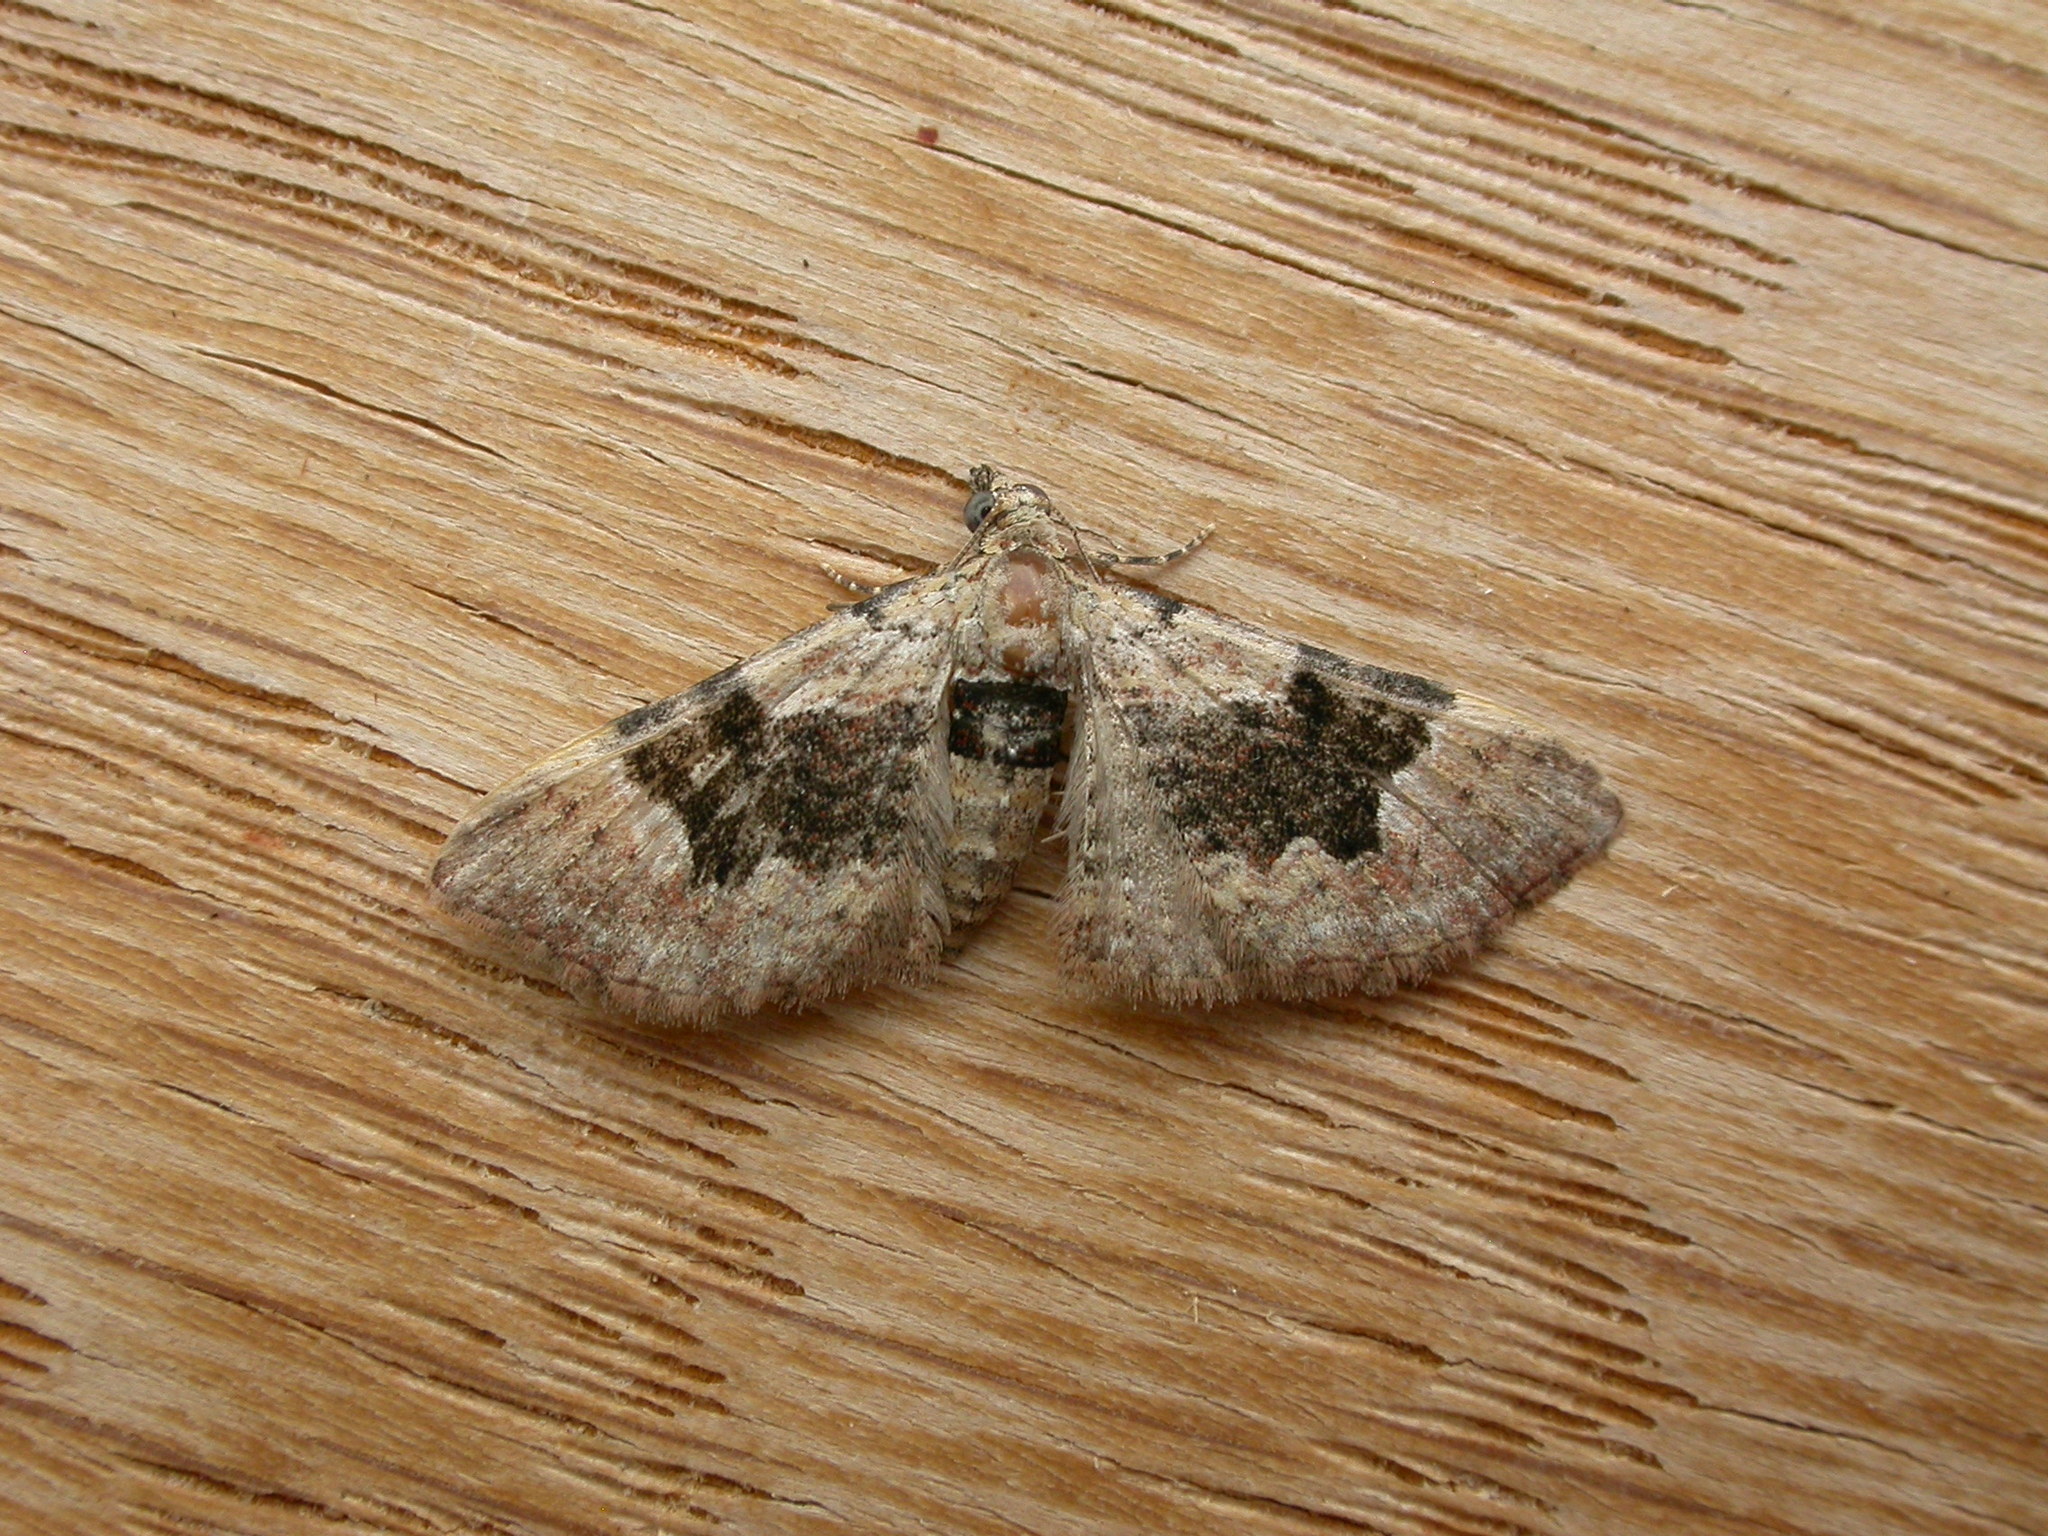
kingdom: Animalia
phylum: Arthropoda
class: Insecta
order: Lepidoptera
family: Geometridae
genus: Mnesiloba
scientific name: Mnesiloba eupitheciata
